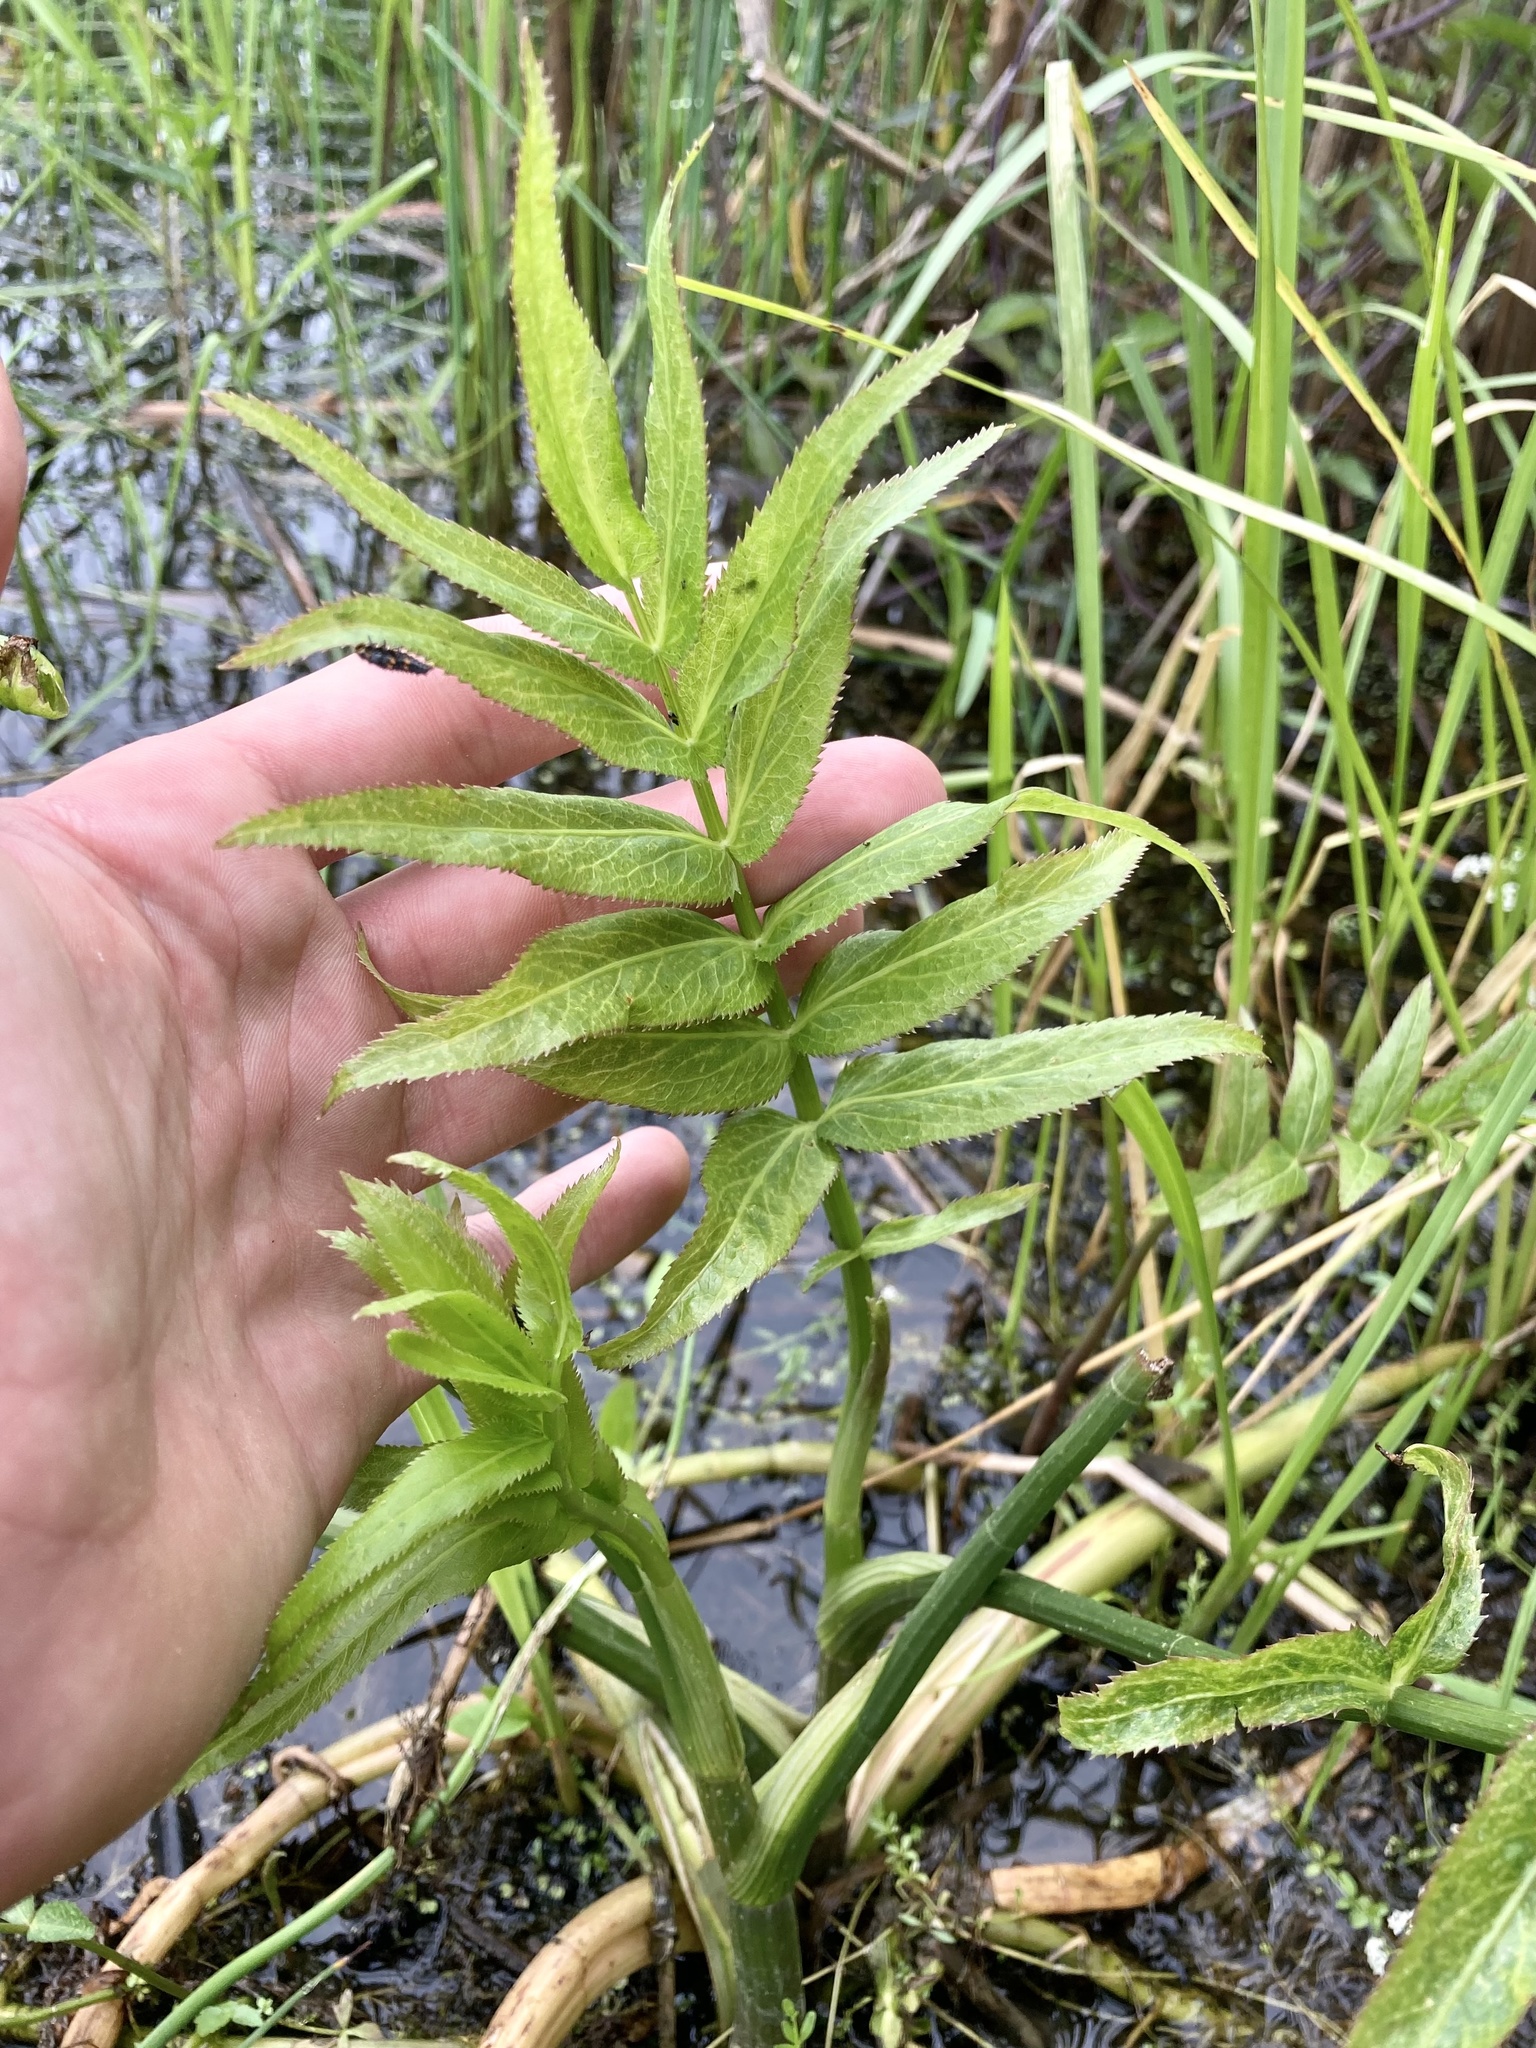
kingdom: Plantae
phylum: Tracheophyta
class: Magnoliopsida
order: Apiales
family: Apiaceae
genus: Sium
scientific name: Sium suave
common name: Hemlock water-parsnip
